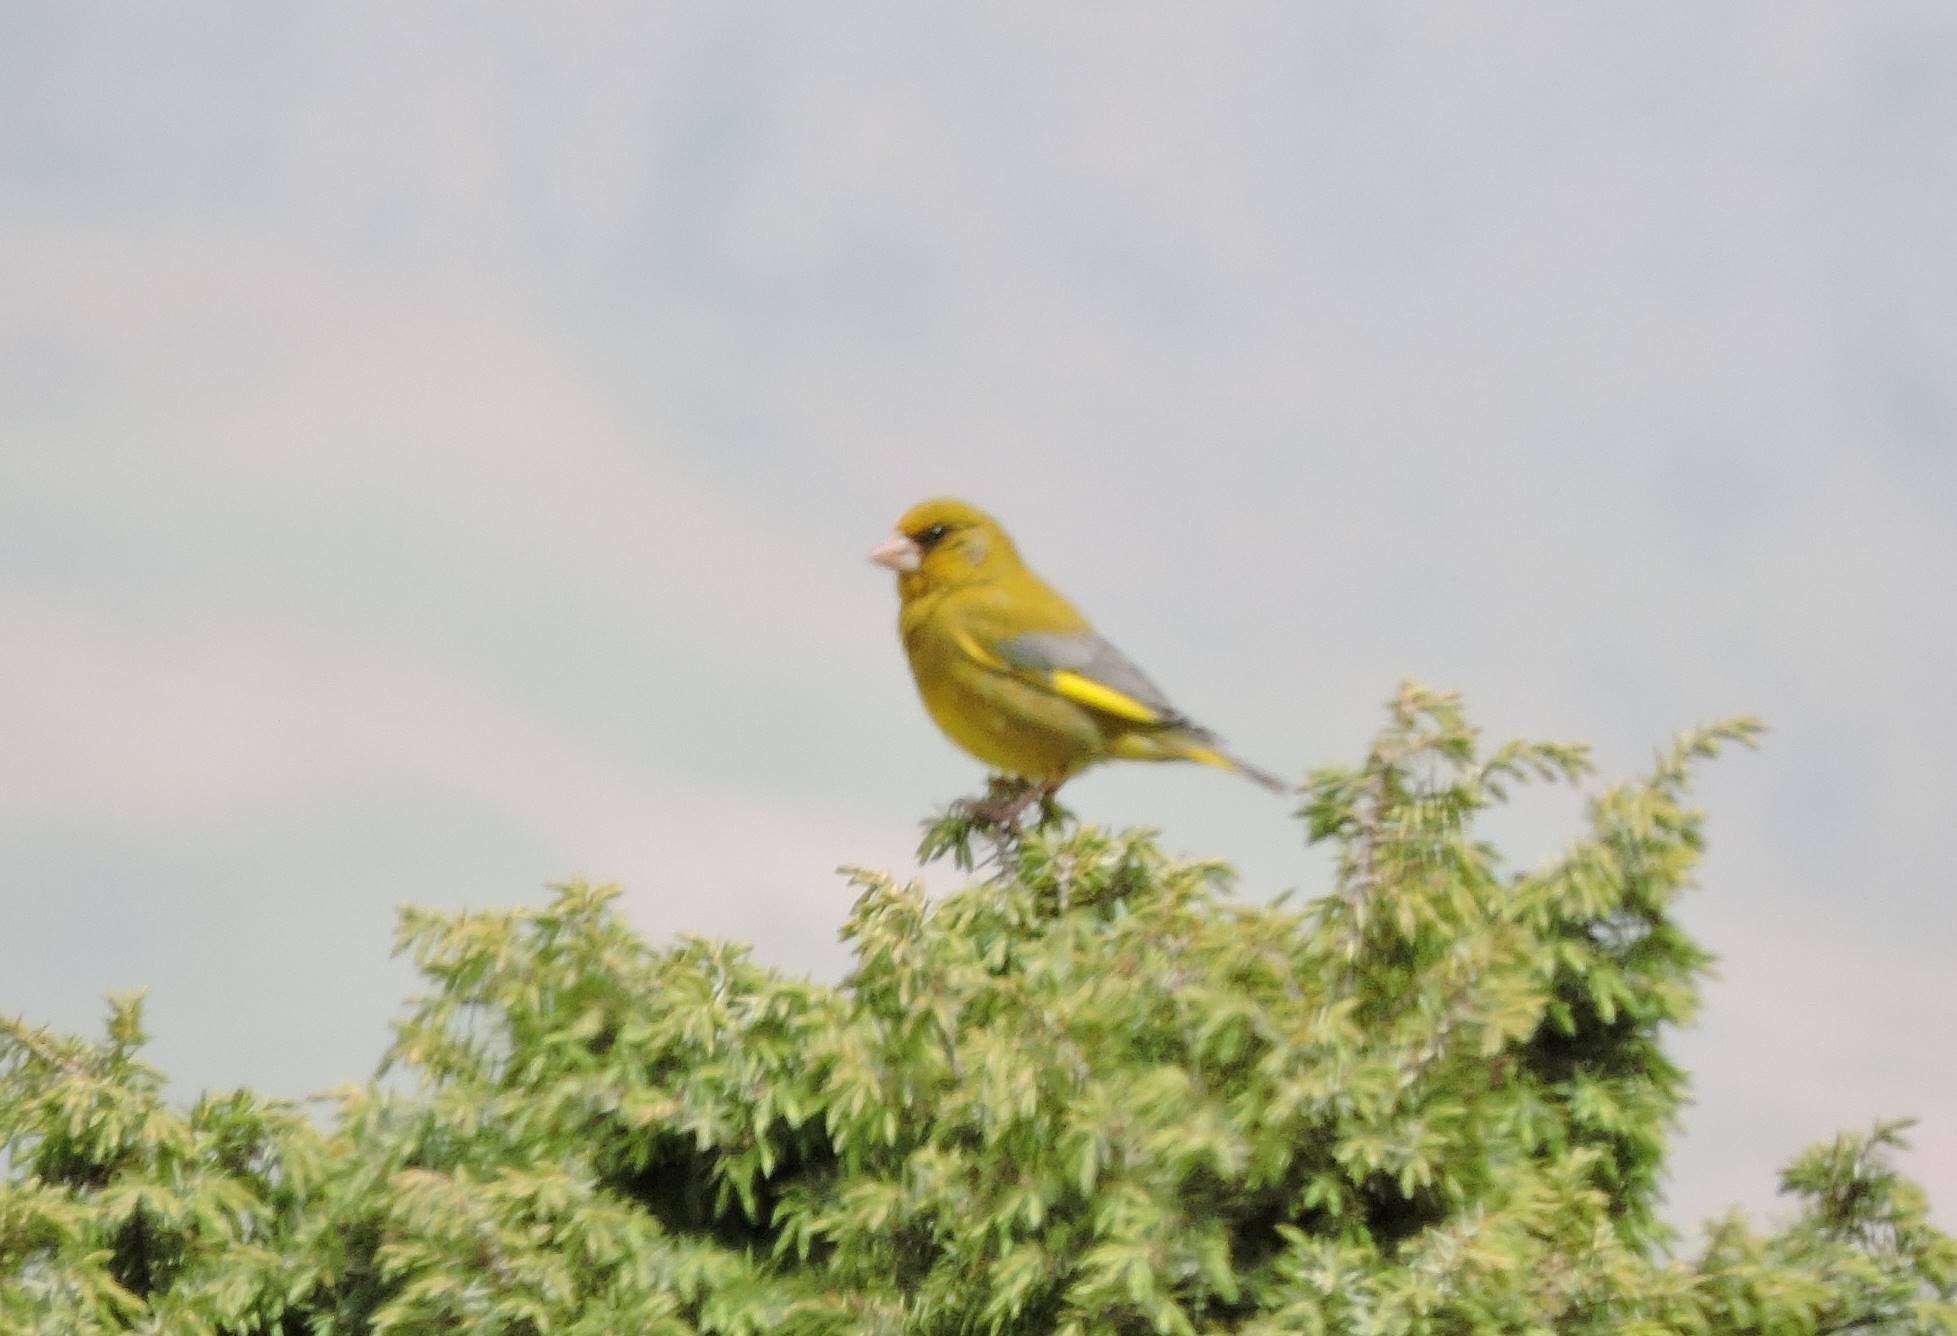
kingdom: Plantae
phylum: Tracheophyta
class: Liliopsida
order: Poales
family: Poaceae
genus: Chloris
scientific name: Chloris chloris
